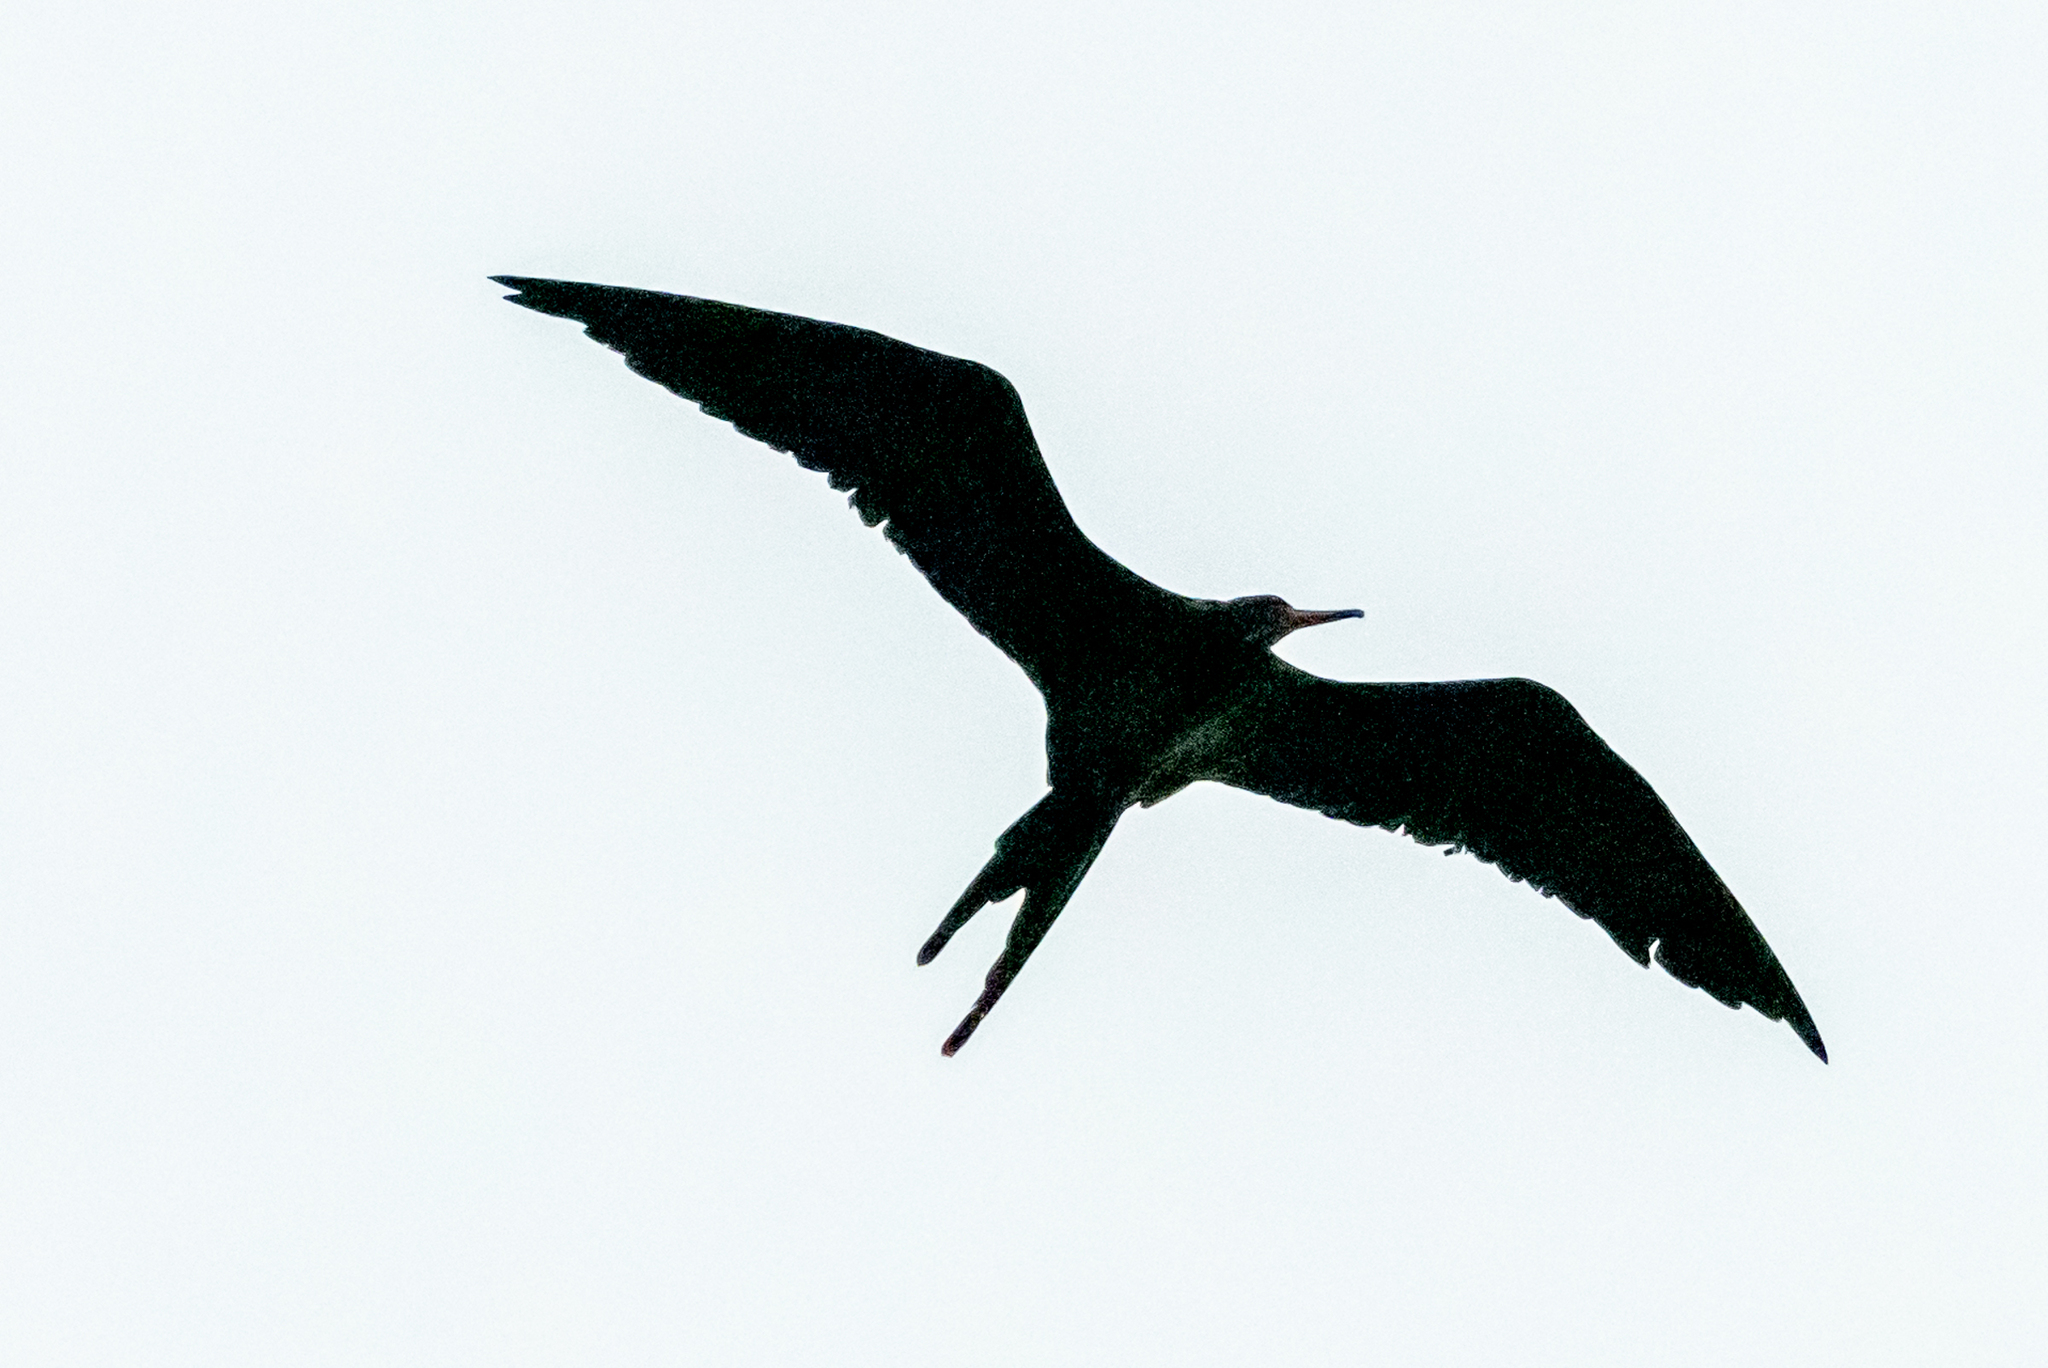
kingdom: Animalia
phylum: Chordata
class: Aves
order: Suliformes
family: Fregatidae
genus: Fregata
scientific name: Fregata magnificens
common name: Magnificent frigatebird
